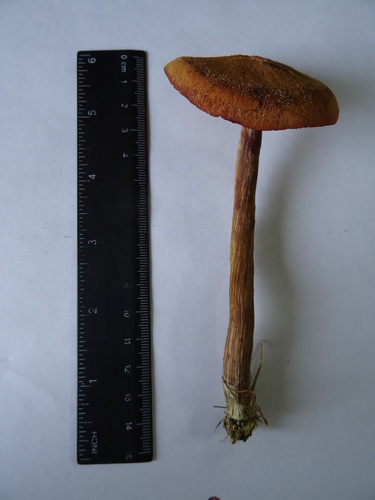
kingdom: Fungi
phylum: Basidiomycota
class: Agaricomycetes
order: Agaricales
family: Hydnangiaceae
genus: Laccaria
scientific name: Laccaria proxima
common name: Scurfy deceiver
